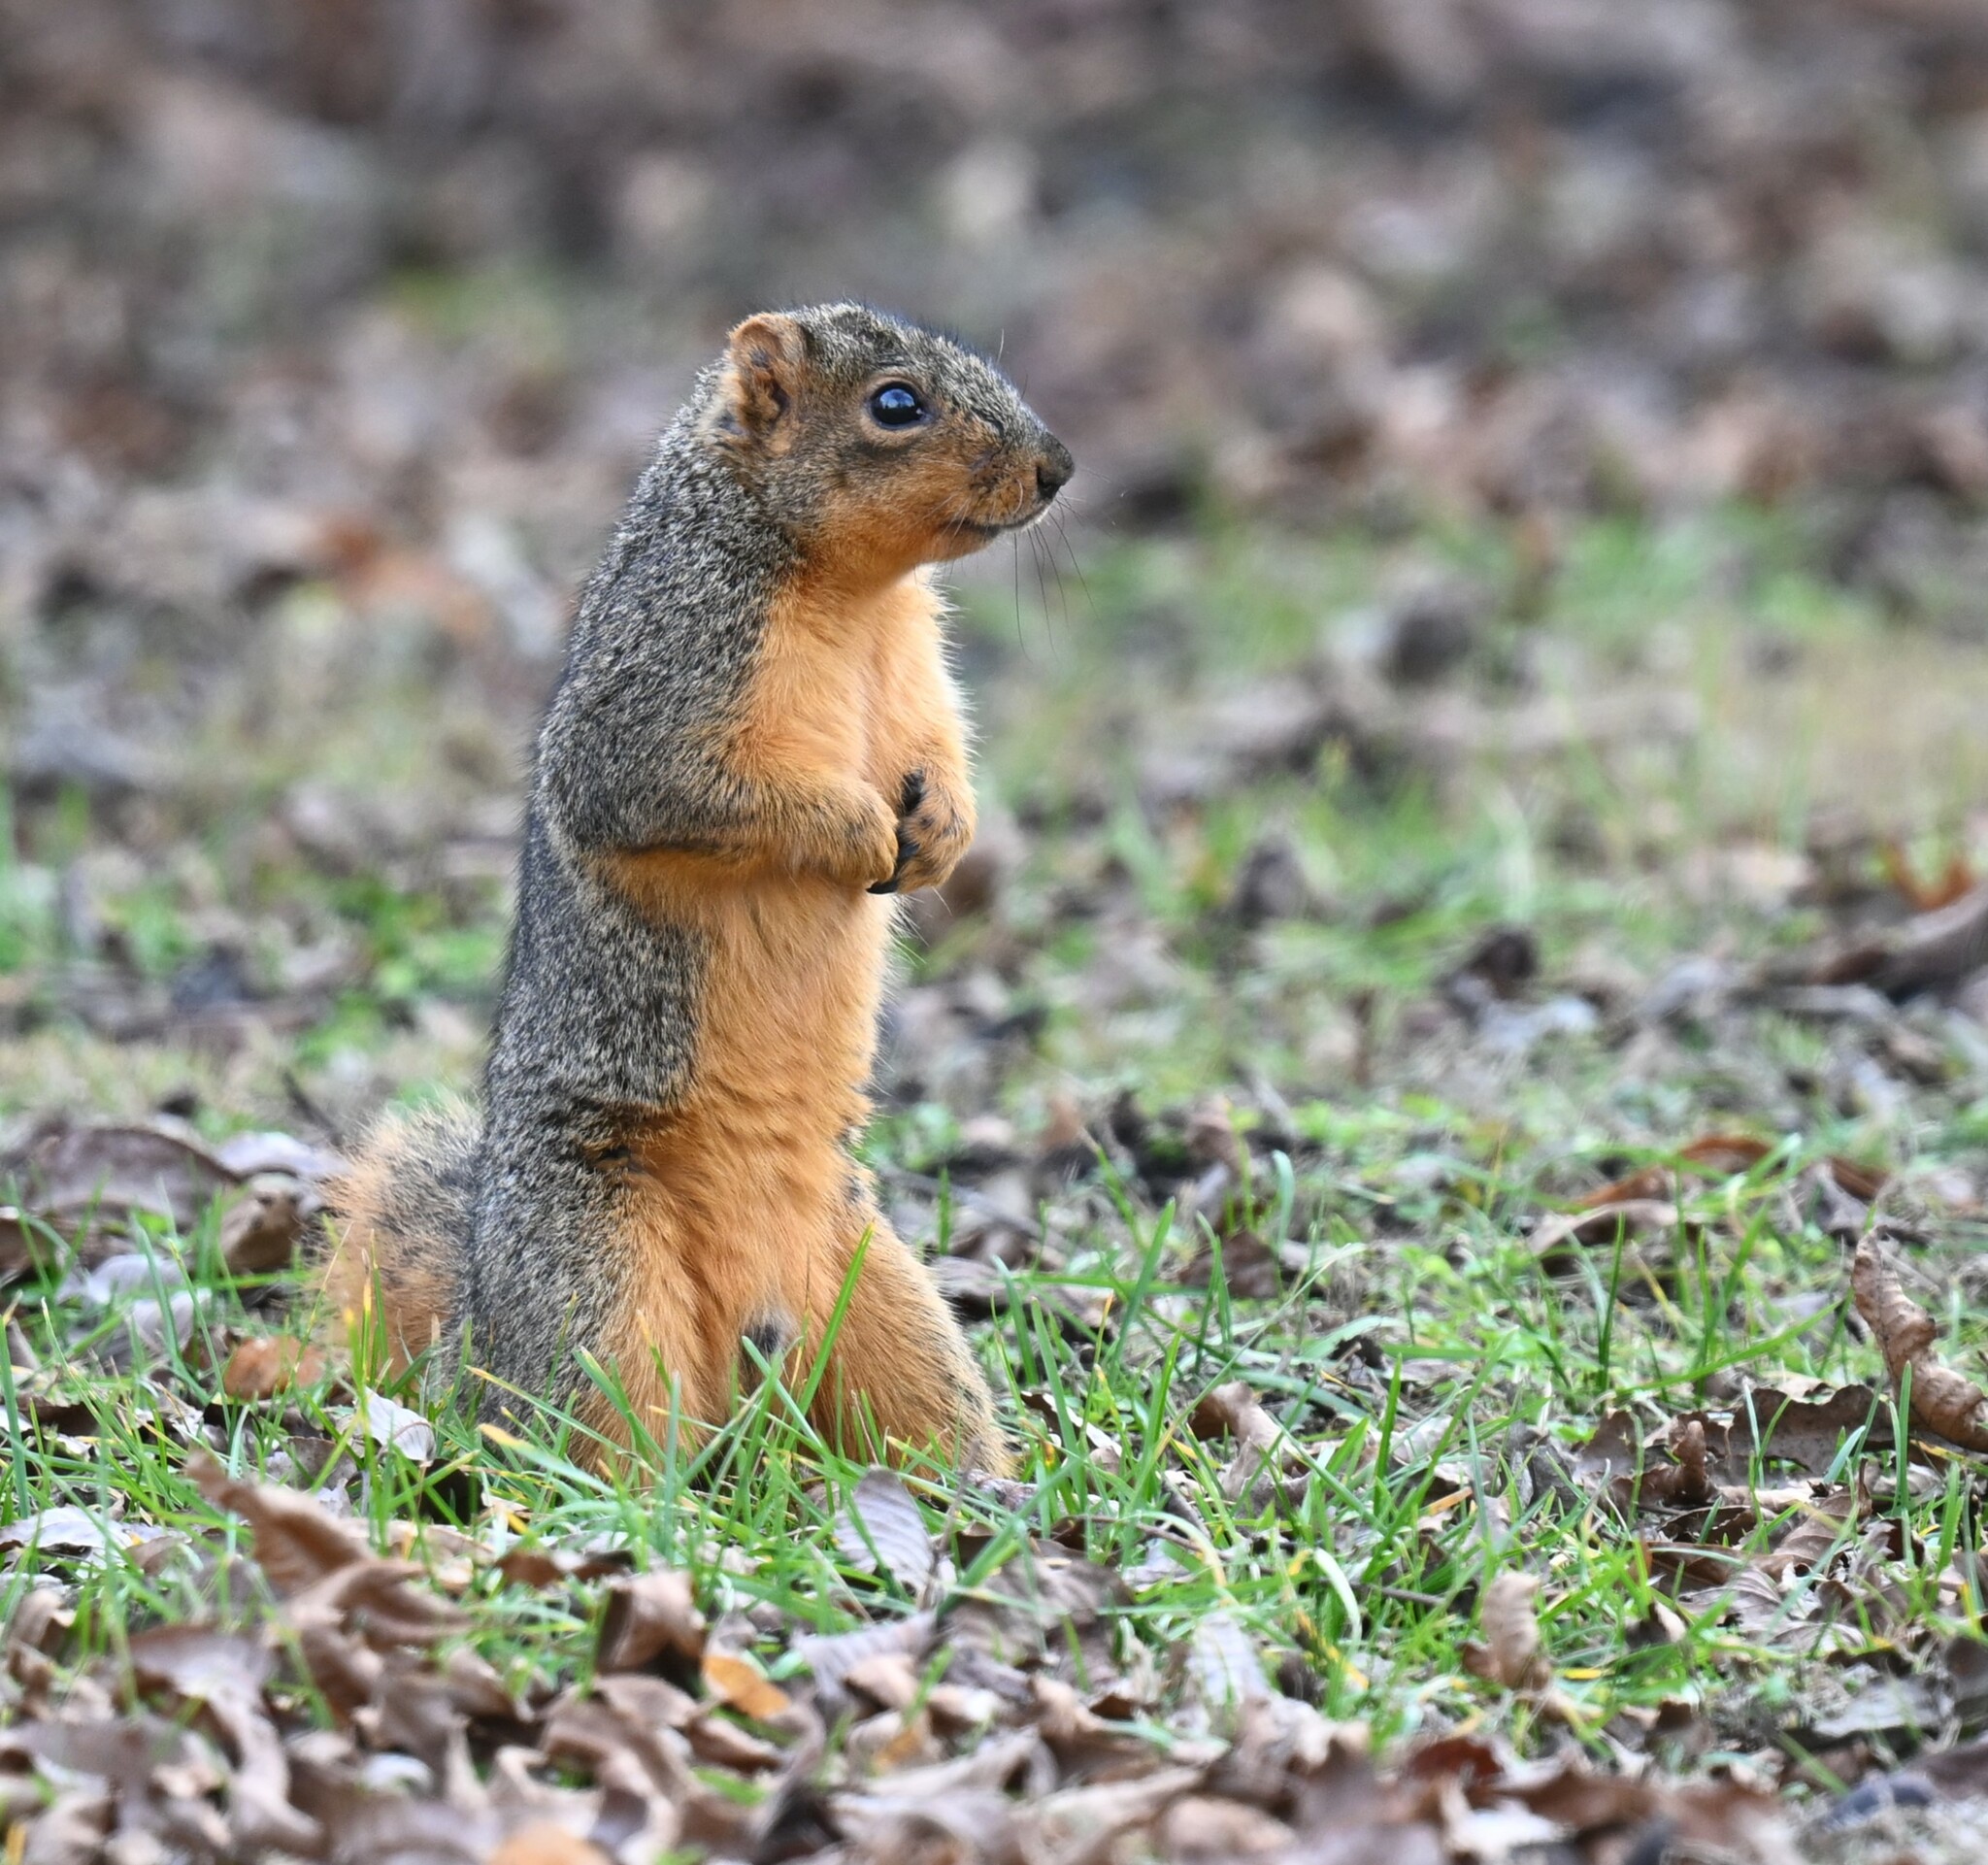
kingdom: Animalia
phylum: Chordata
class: Mammalia
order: Rodentia
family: Sciuridae
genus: Sciurus
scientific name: Sciurus niger
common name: Fox squirrel
